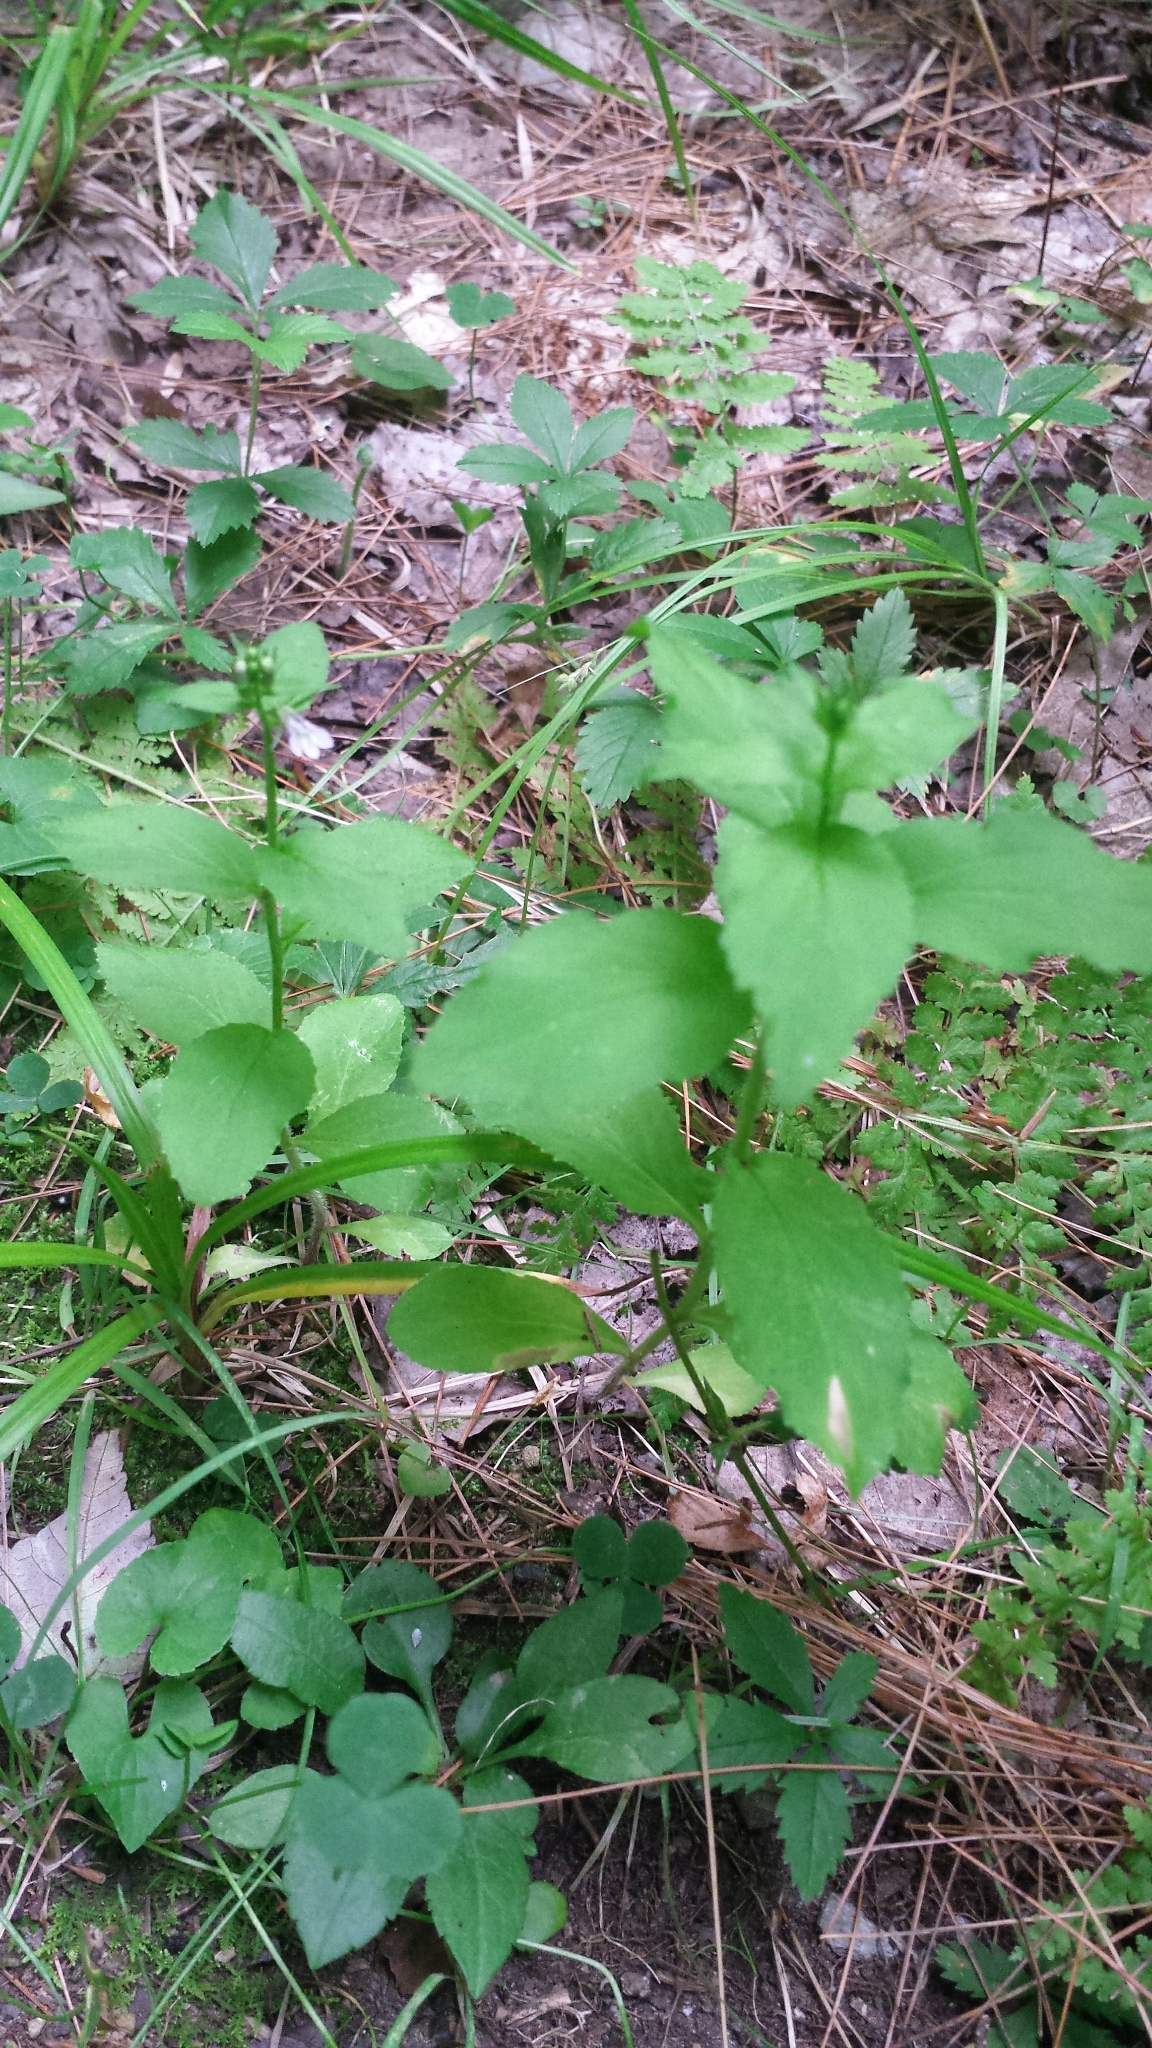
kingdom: Plantae
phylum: Tracheophyta
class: Magnoliopsida
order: Asterales
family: Campanulaceae
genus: Lobelia
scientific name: Lobelia inflata
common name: Indian tobacco
